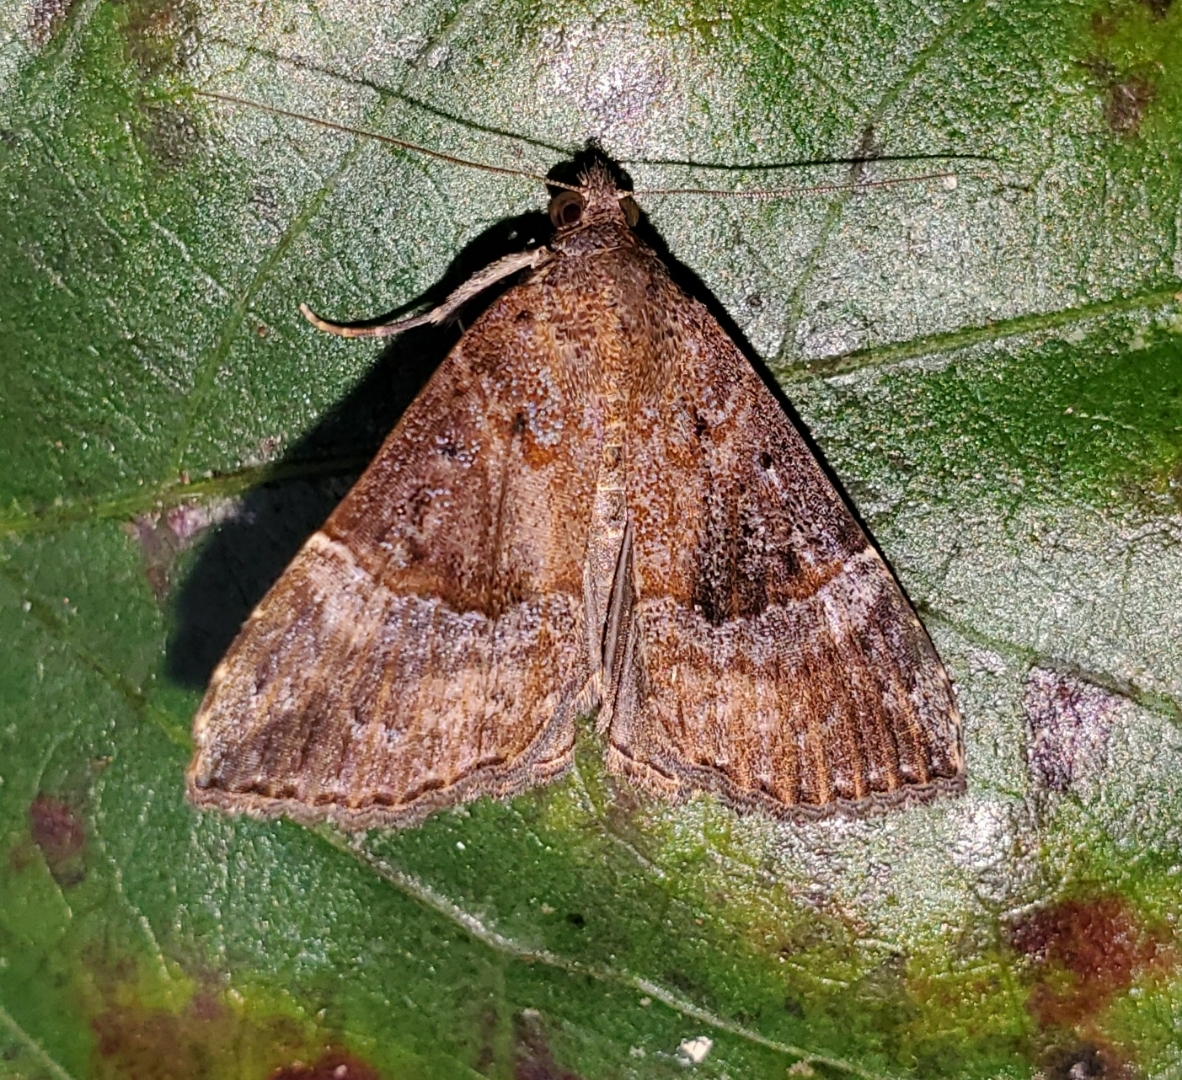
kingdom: Animalia
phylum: Arthropoda
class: Insecta
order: Lepidoptera
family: Erebidae
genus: Hypena
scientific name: Hypena vetustalis
